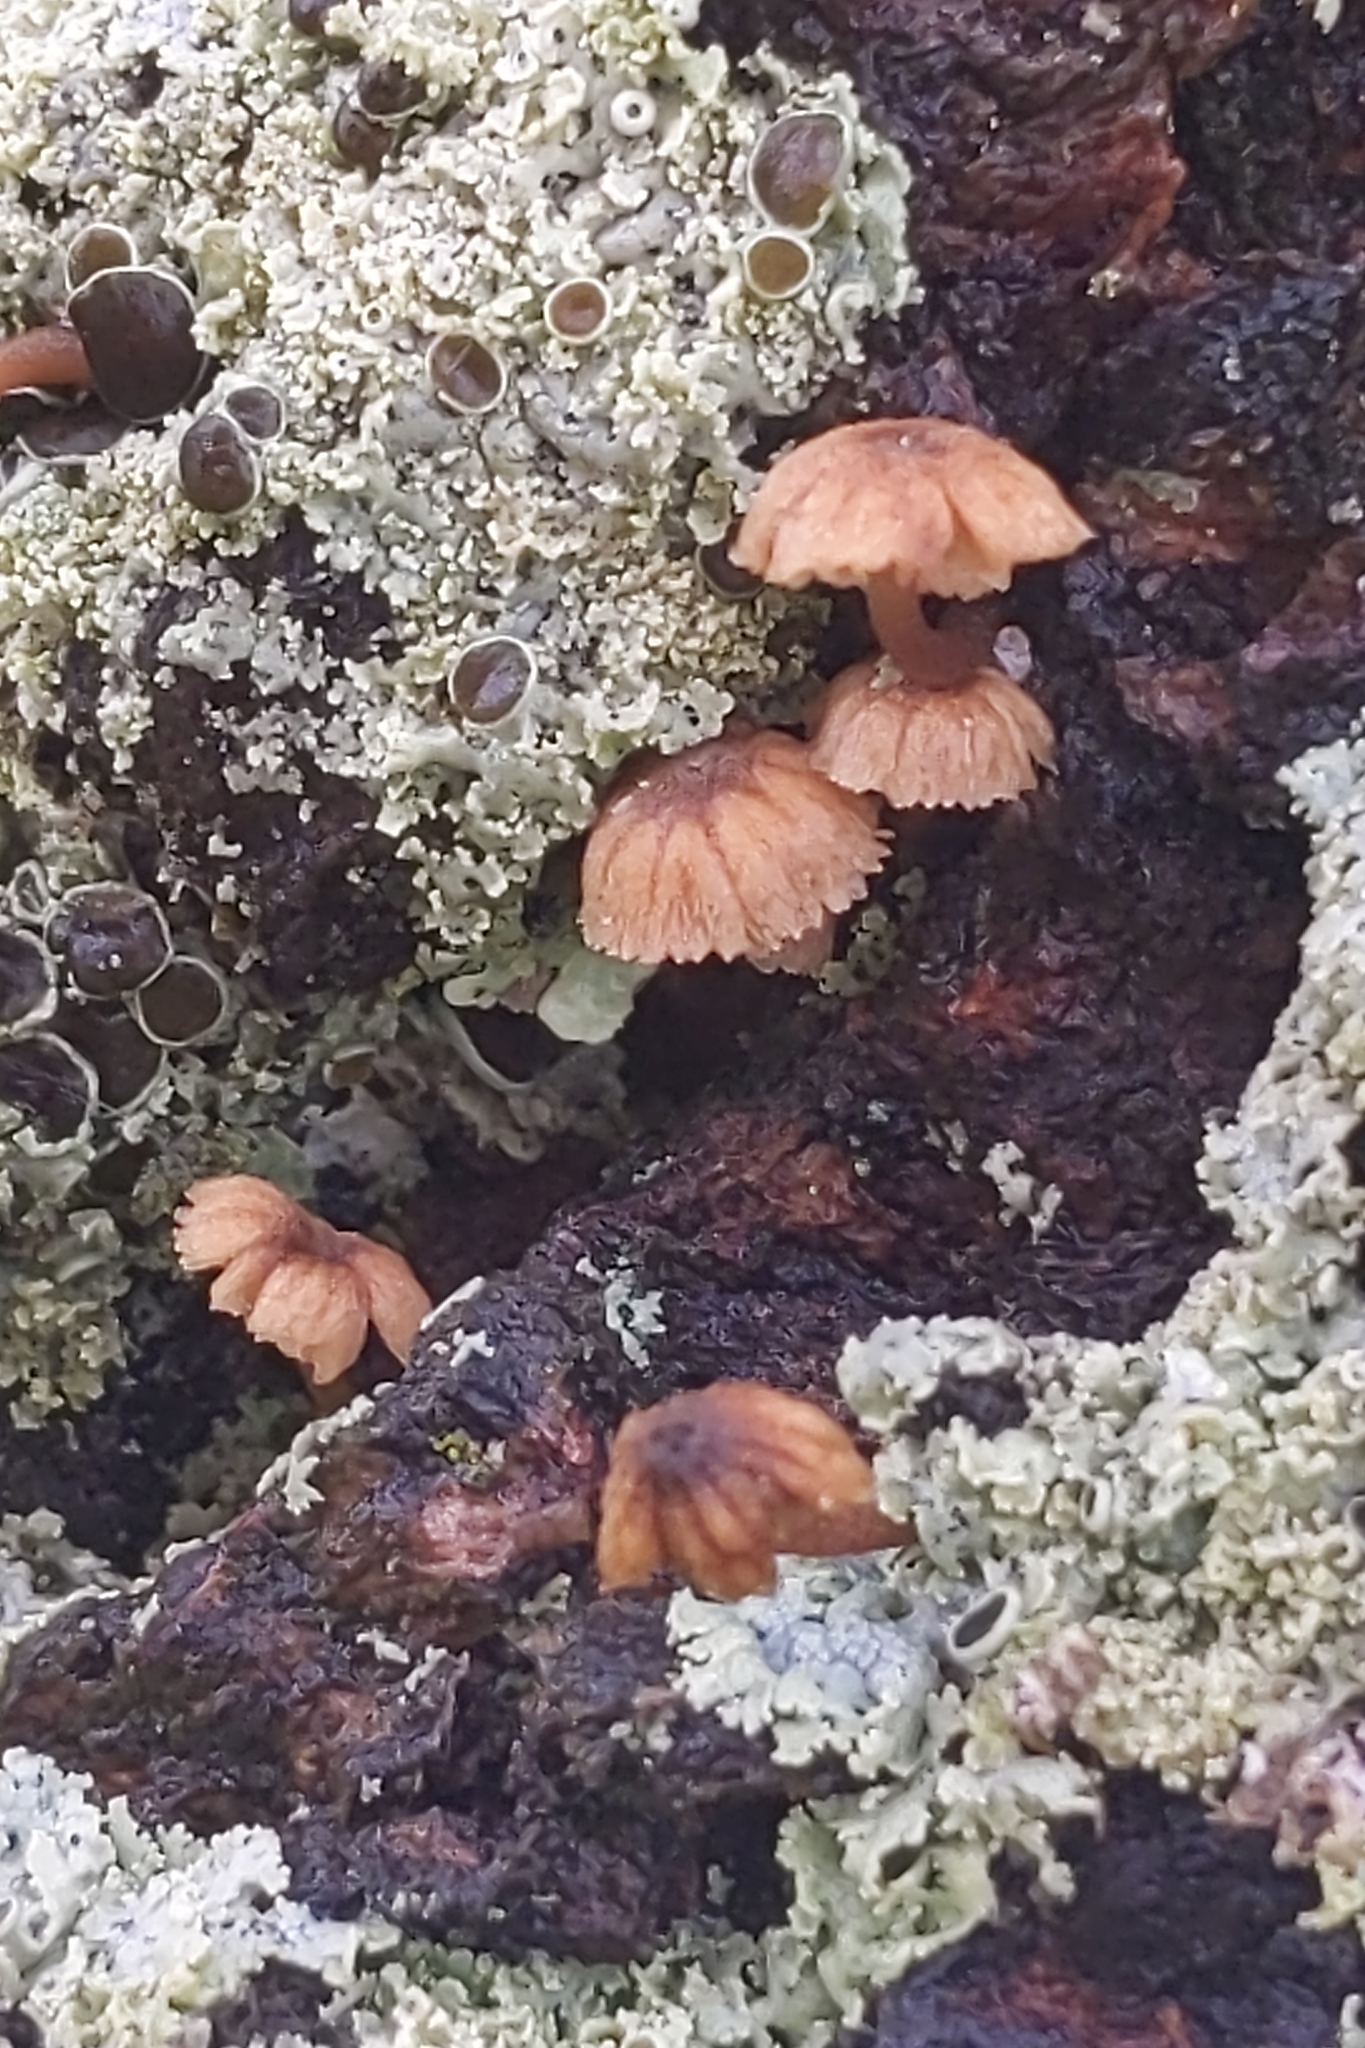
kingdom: Fungi
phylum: Basidiomycota
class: Agaricomycetes
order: Agaricales
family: Mycenaceae
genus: Mycena
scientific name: Mycena corticola
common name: Bark mycena
